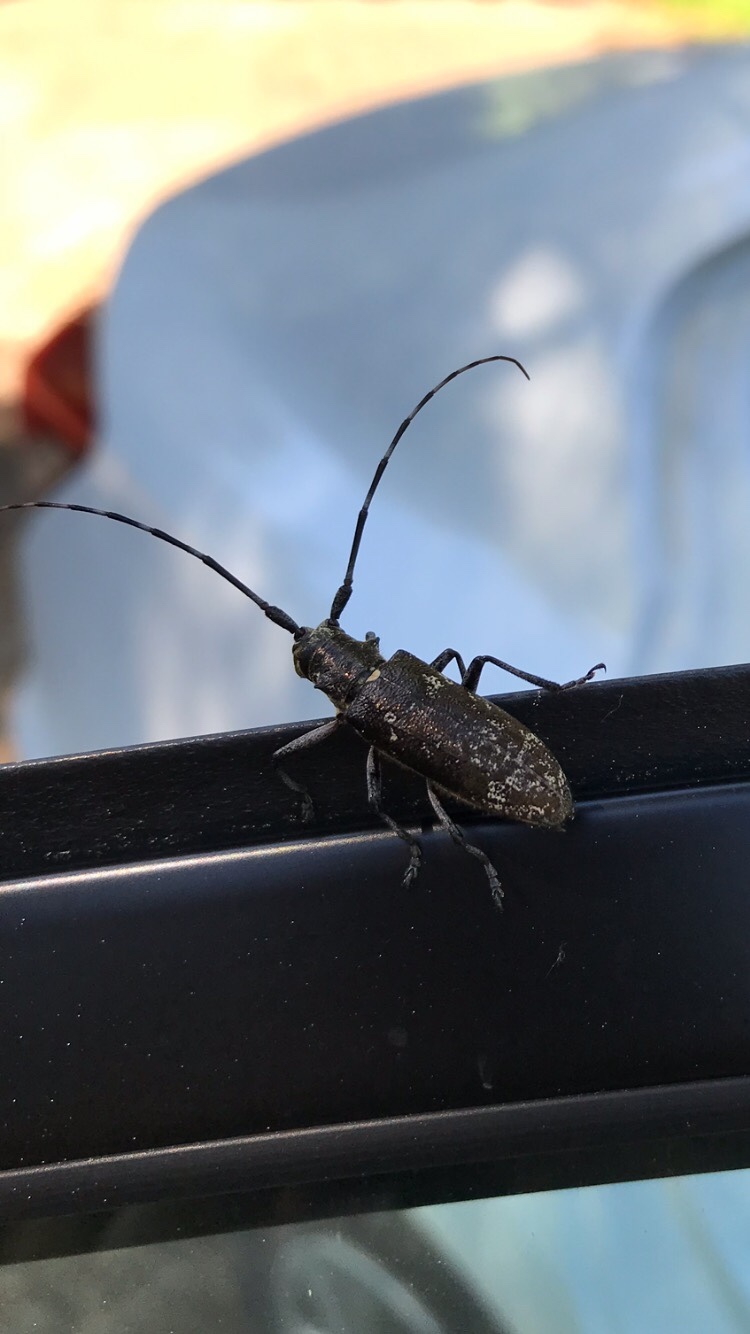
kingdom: Animalia
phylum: Arthropoda
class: Insecta
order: Coleoptera
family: Cerambycidae
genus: Monochamus
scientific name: Monochamus scutellatus
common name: White-spotted sawyer beetle
